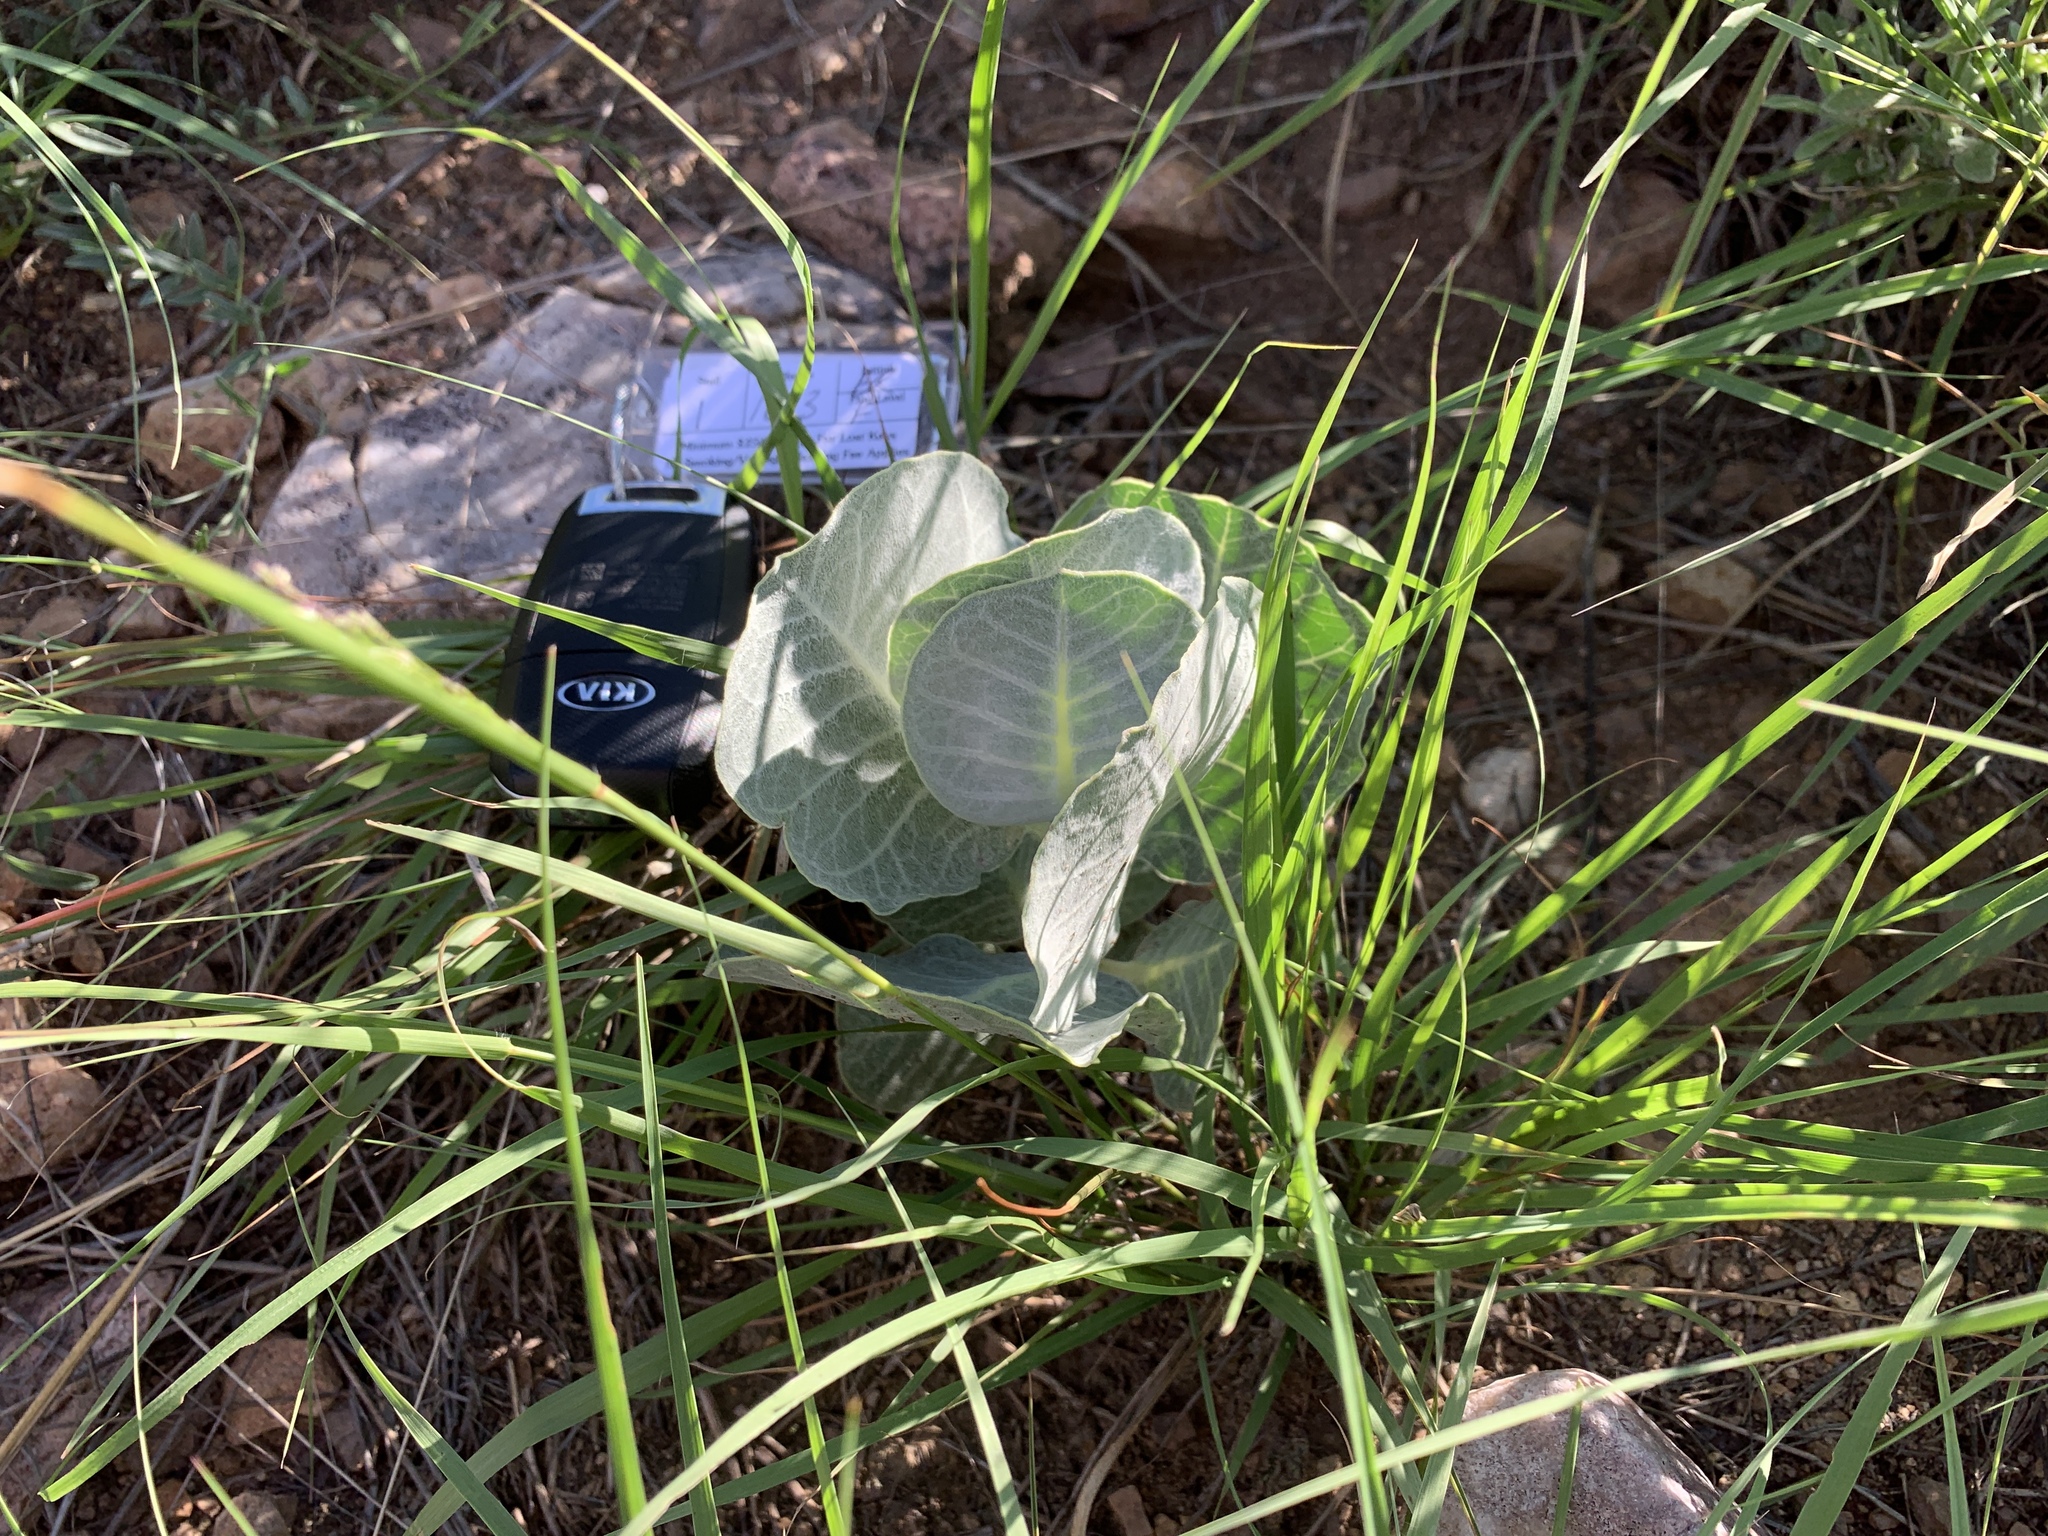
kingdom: Plantae
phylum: Tracheophyta
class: Magnoliopsida
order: Gentianales
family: Apocynaceae
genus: Asclepias
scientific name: Asclepias nummularia
